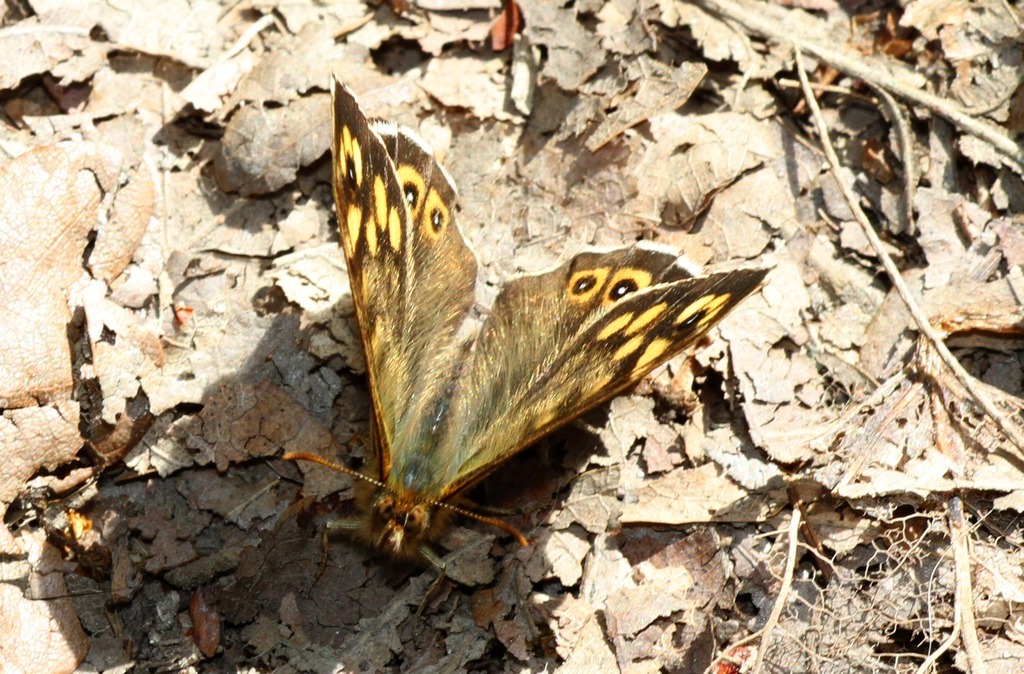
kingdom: Animalia
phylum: Arthropoda
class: Insecta
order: Lepidoptera
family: Nymphalidae
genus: Pararge
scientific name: Pararge aegeria
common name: Speckled wood
